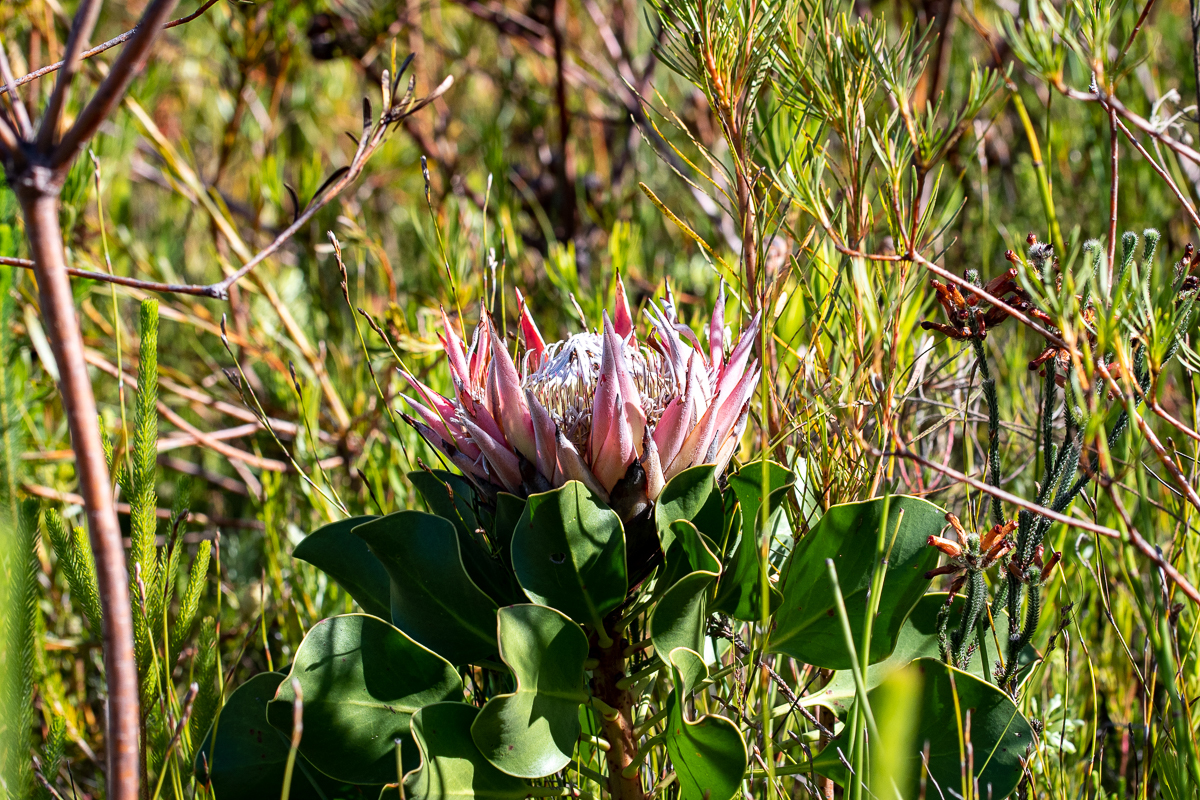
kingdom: Plantae
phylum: Tracheophyta
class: Magnoliopsida
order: Proteales
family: Proteaceae
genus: Protea
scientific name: Protea cynaroides
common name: King protea
